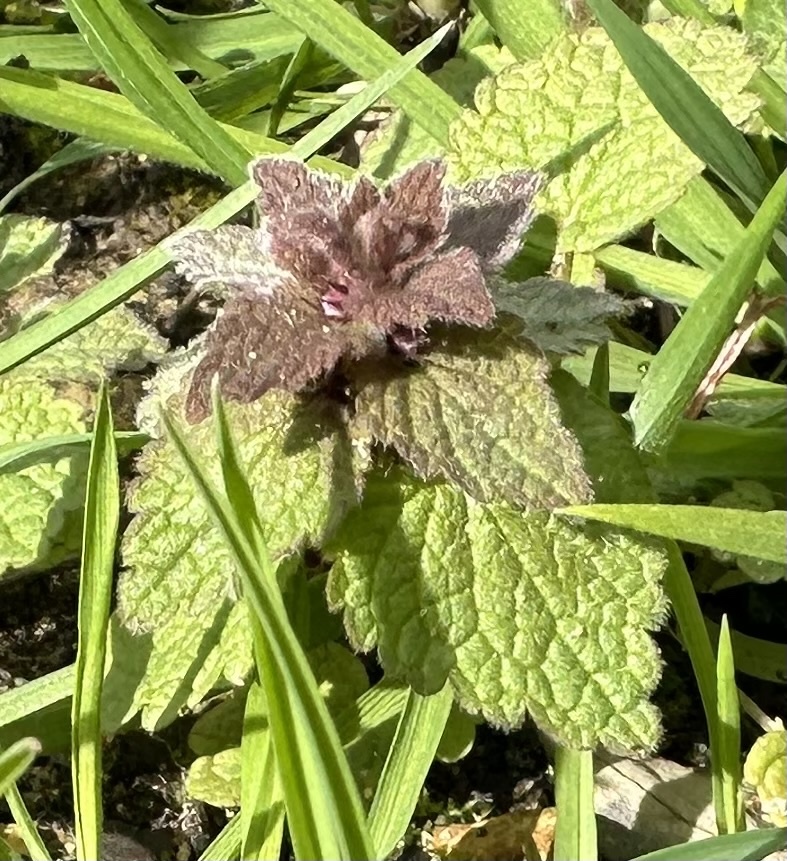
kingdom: Plantae
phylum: Tracheophyta
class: Magnoliopsida
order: Lamiales
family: Lamiaceae
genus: Lamium
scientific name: Lamium purpureum
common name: Red dead-nettle
